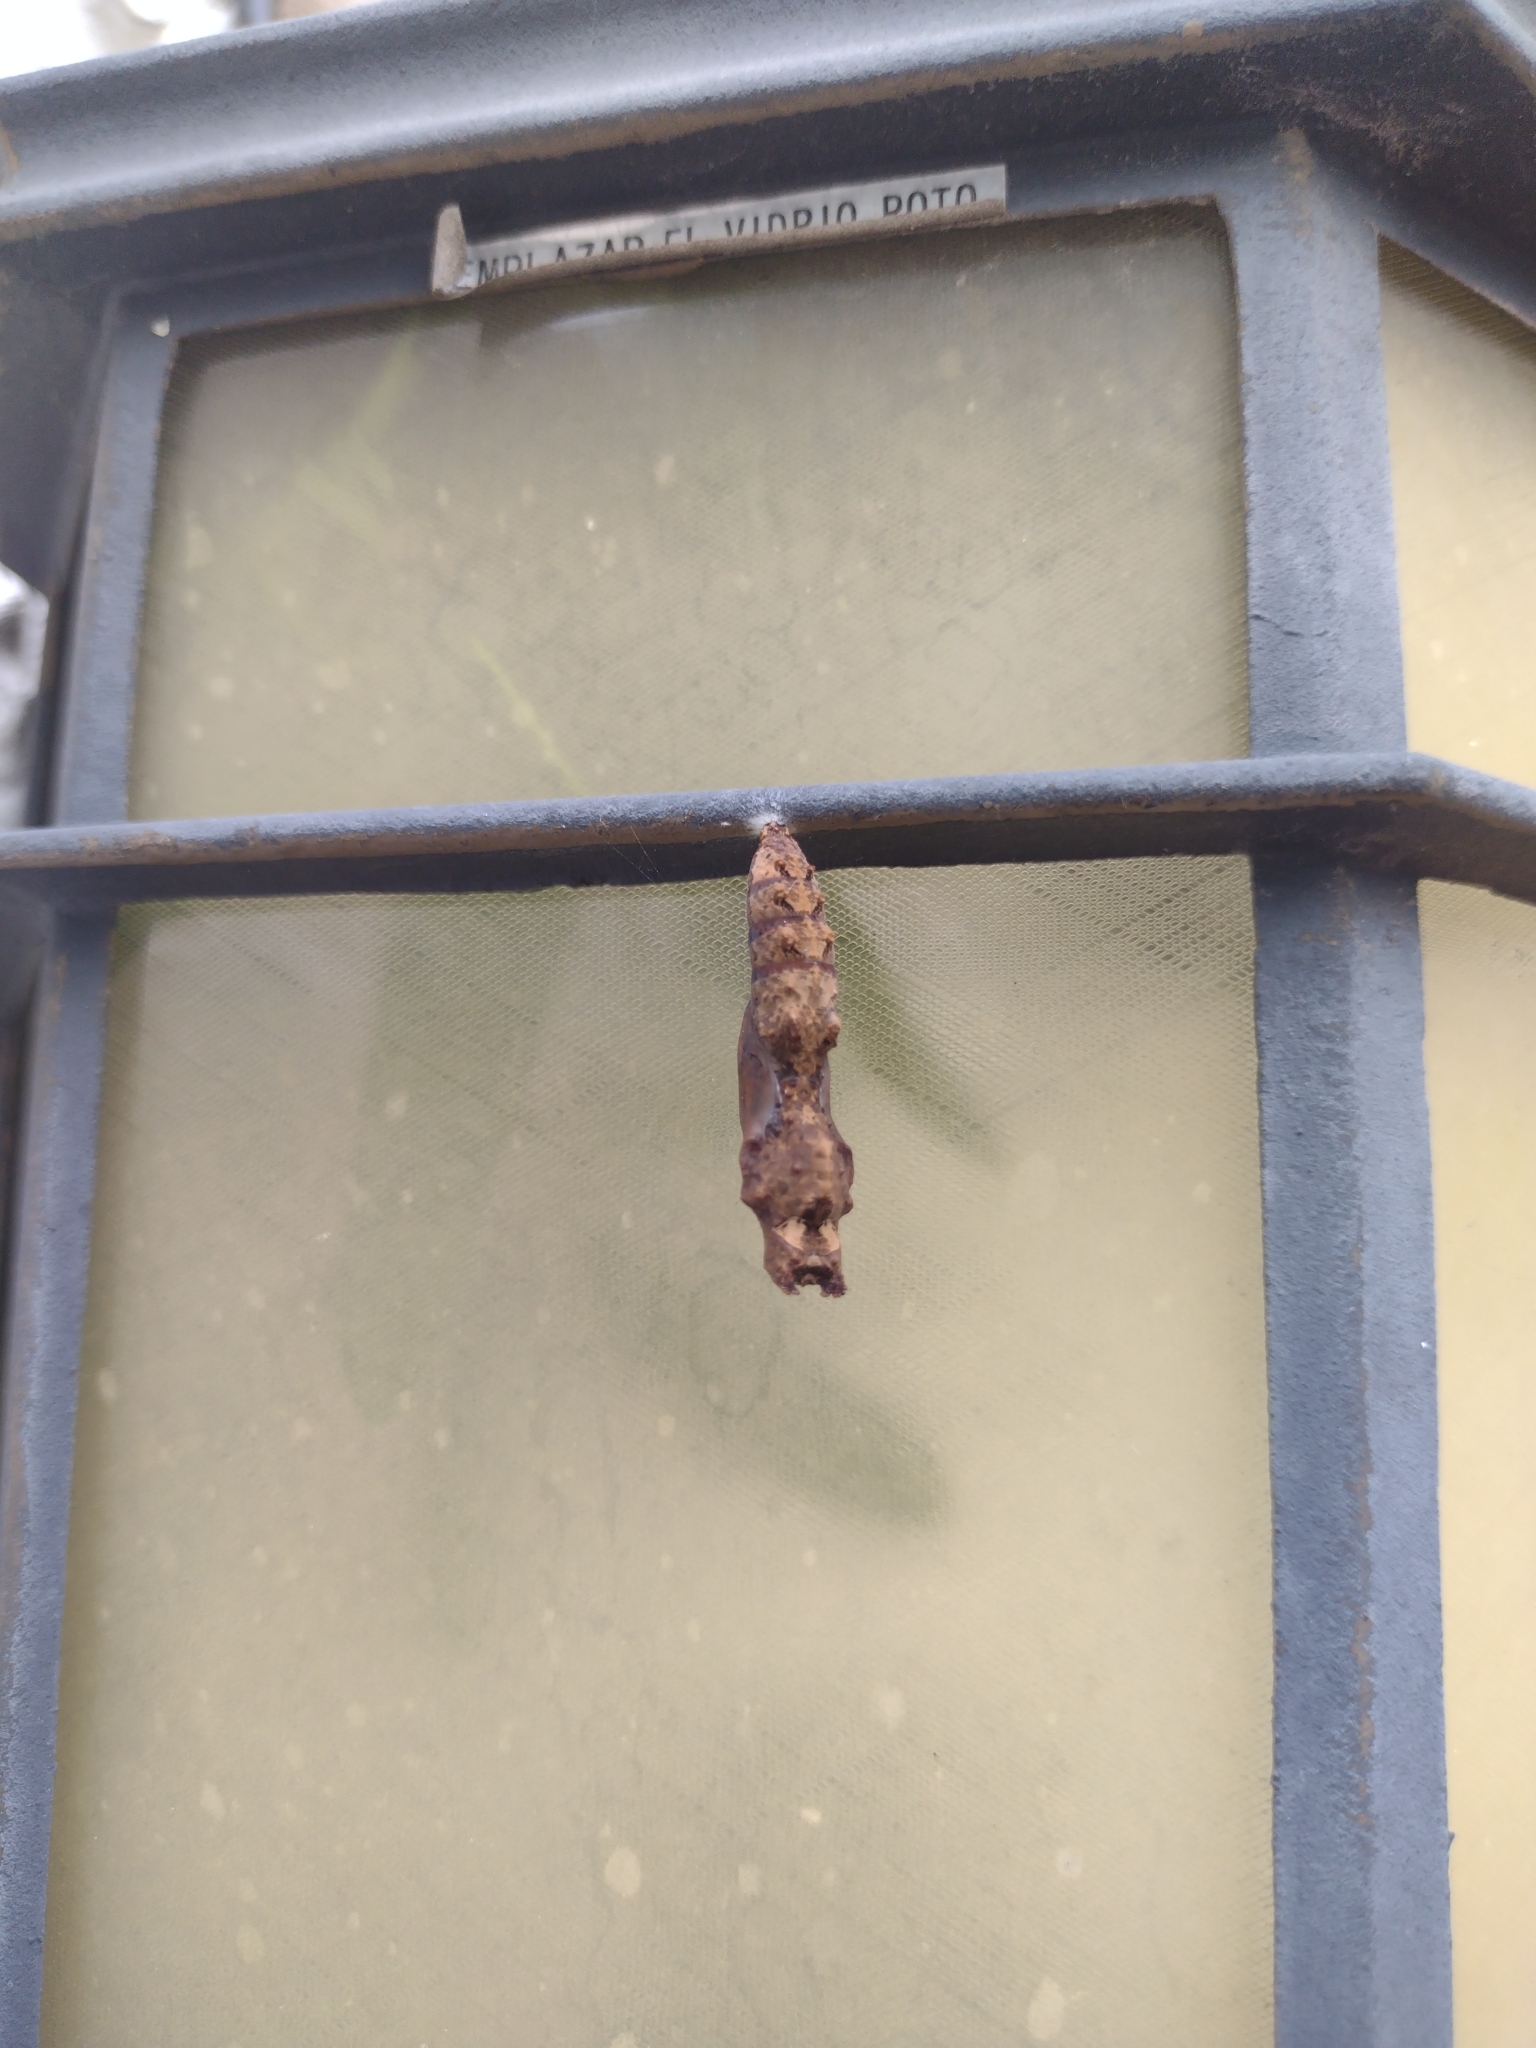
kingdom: Animalia
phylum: Arthropoda
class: Insecta
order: Lepidoptera
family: Nymphalidae
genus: Dione
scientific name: Dione vanillae
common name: Gulf fritillary
